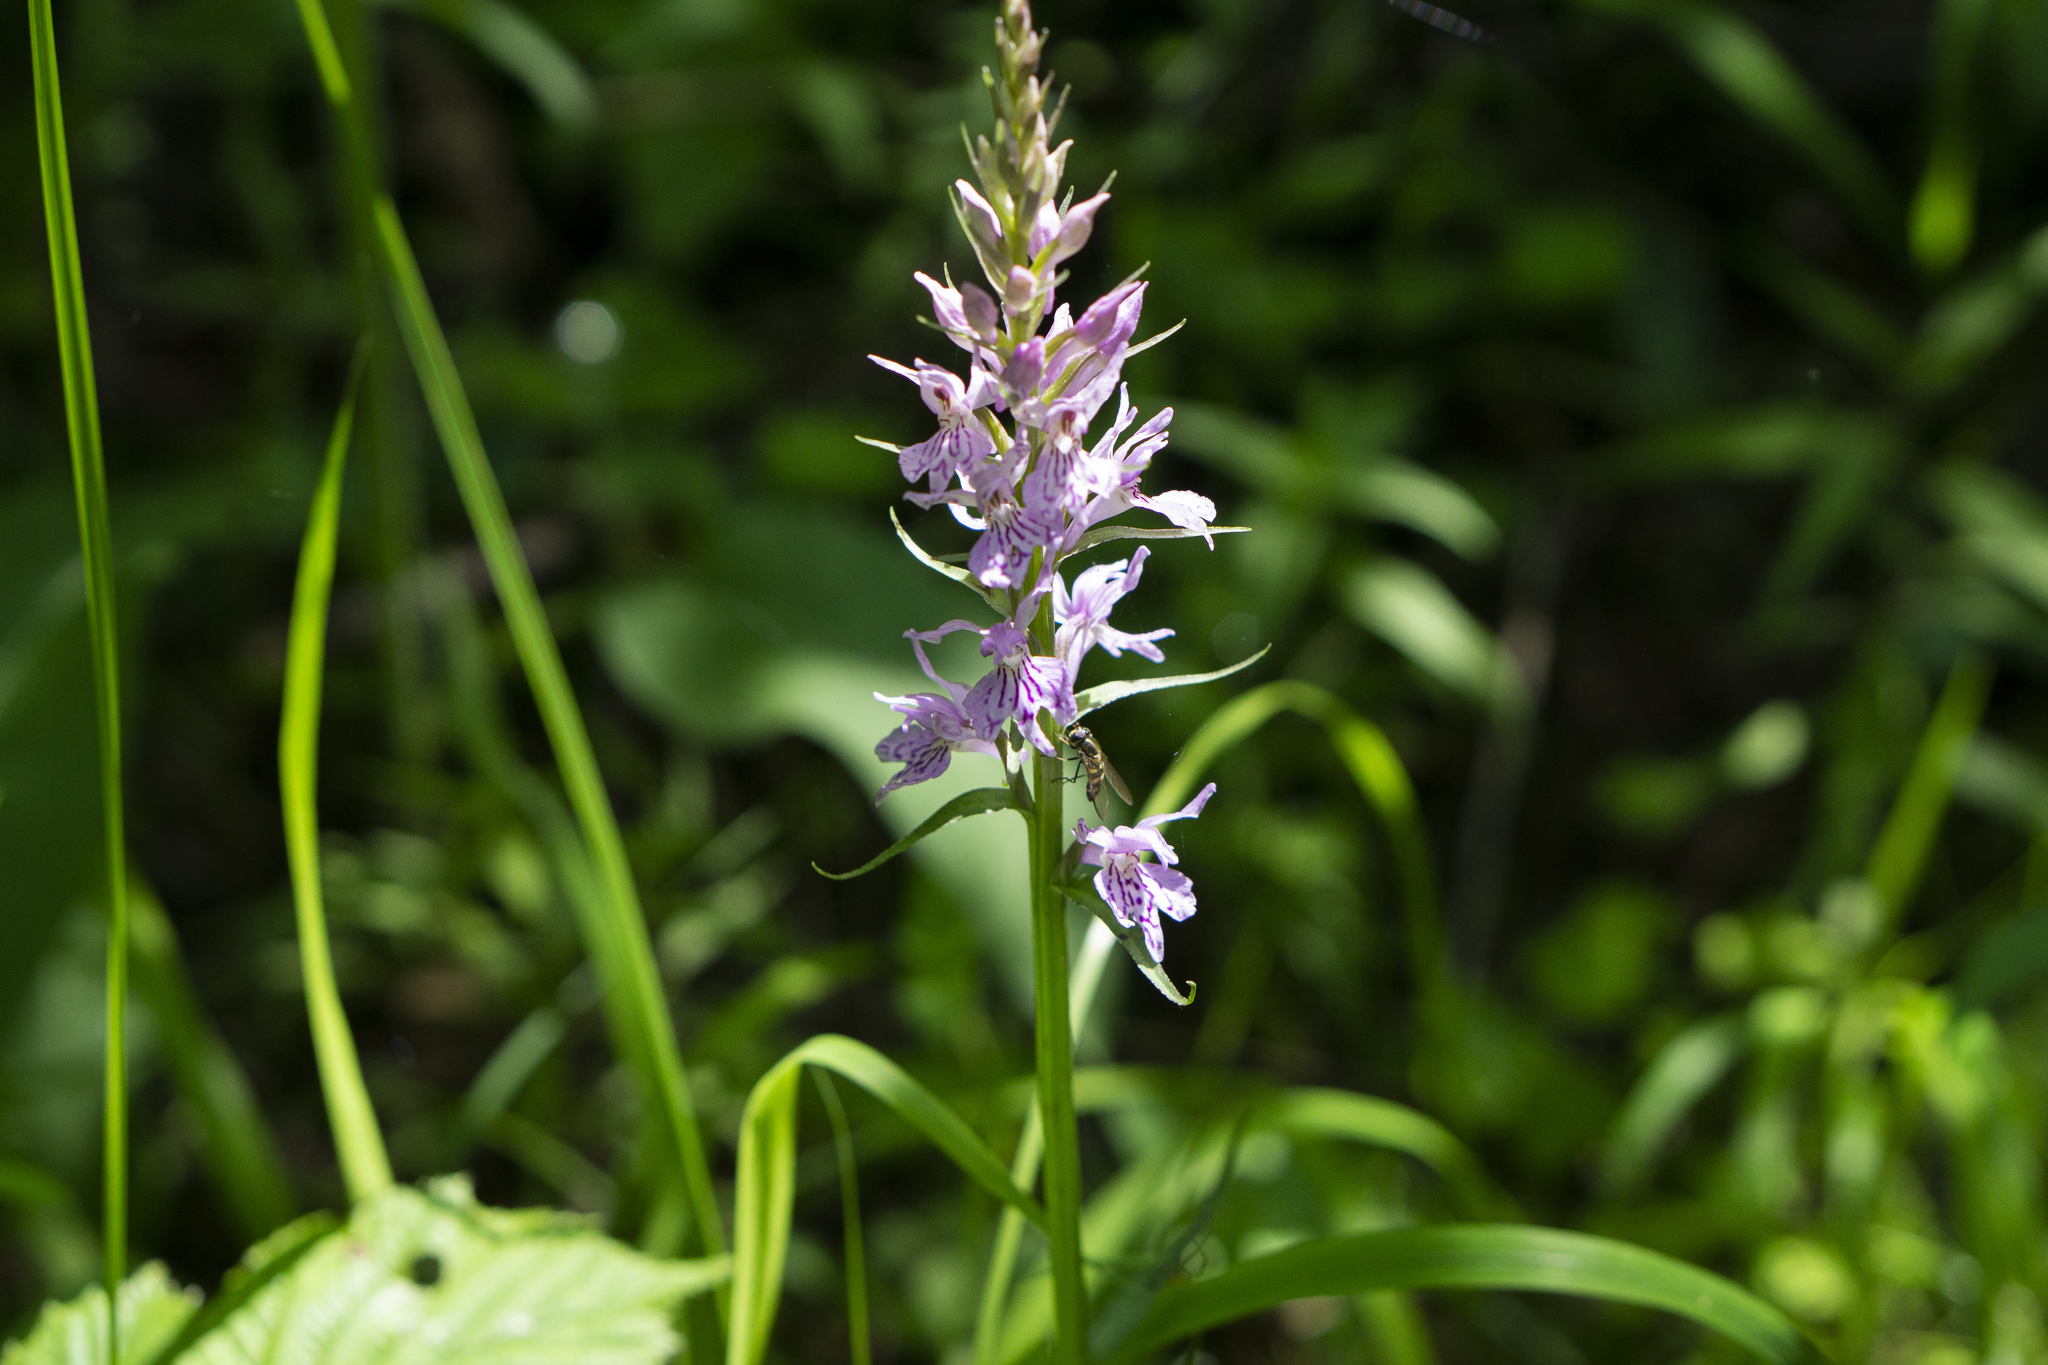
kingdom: Plantae
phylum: Tracheophyta
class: Liliopsida
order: Asparagales
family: Orchidaceae
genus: Dactylorhiza
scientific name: Dactylorhiza maculata
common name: Heath spotted-orchid
